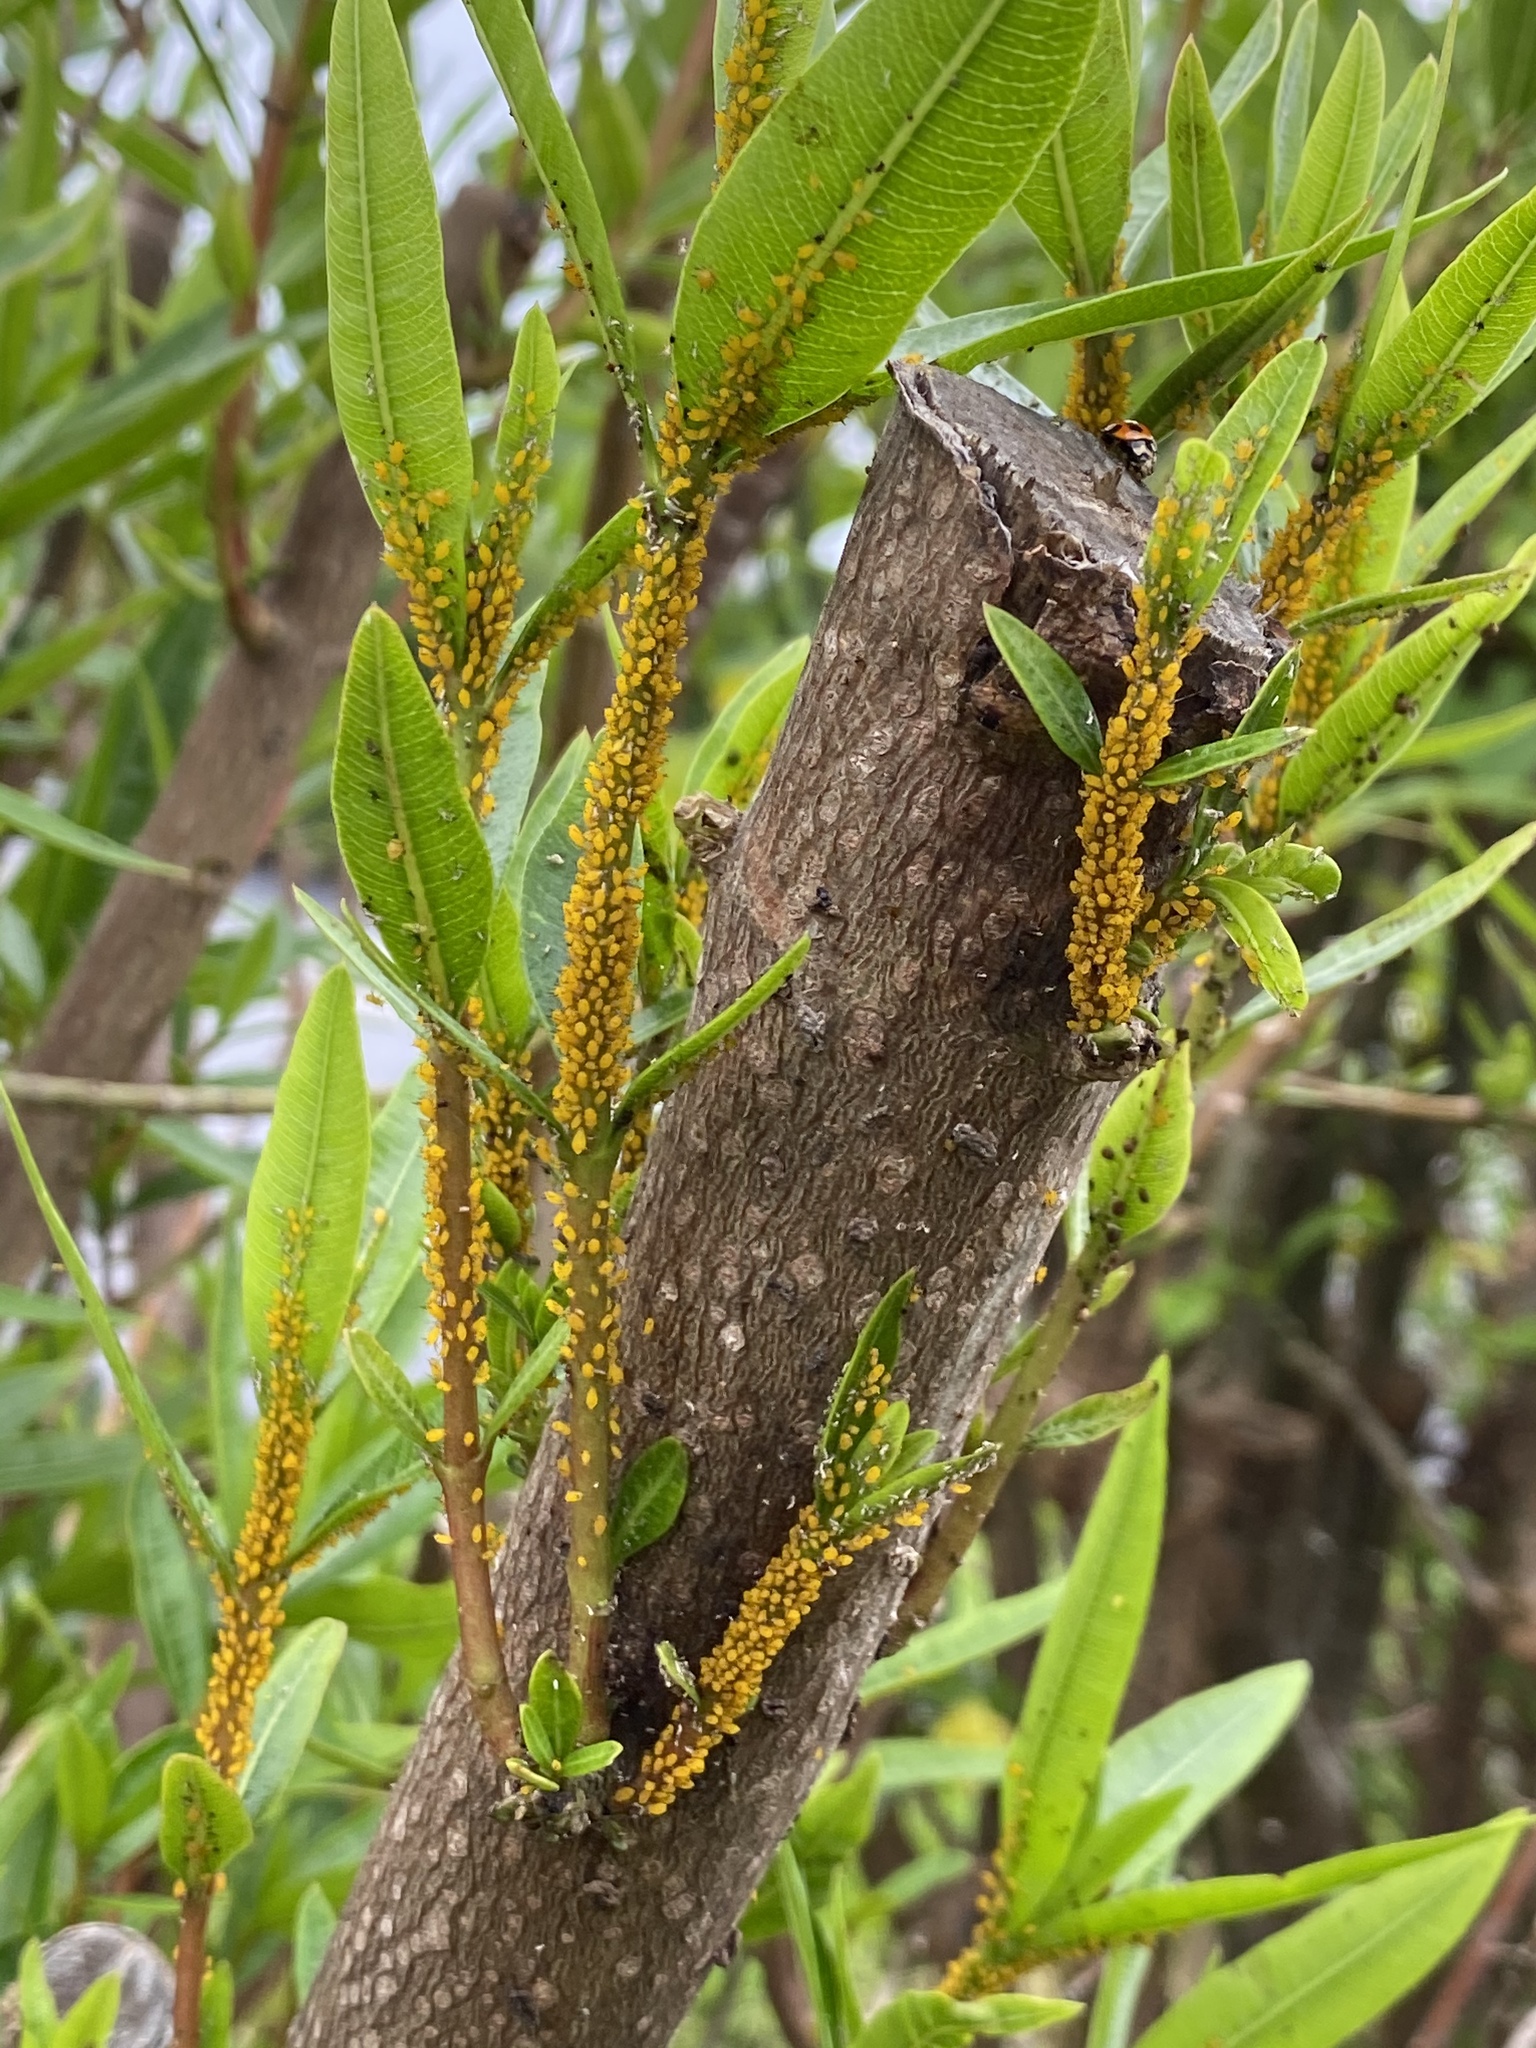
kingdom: Animalia
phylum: Arthropoda
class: Insecta
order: Hemiptera
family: Aphididae
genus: Aphis
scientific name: Aphis nerii
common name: Oleander aphid
